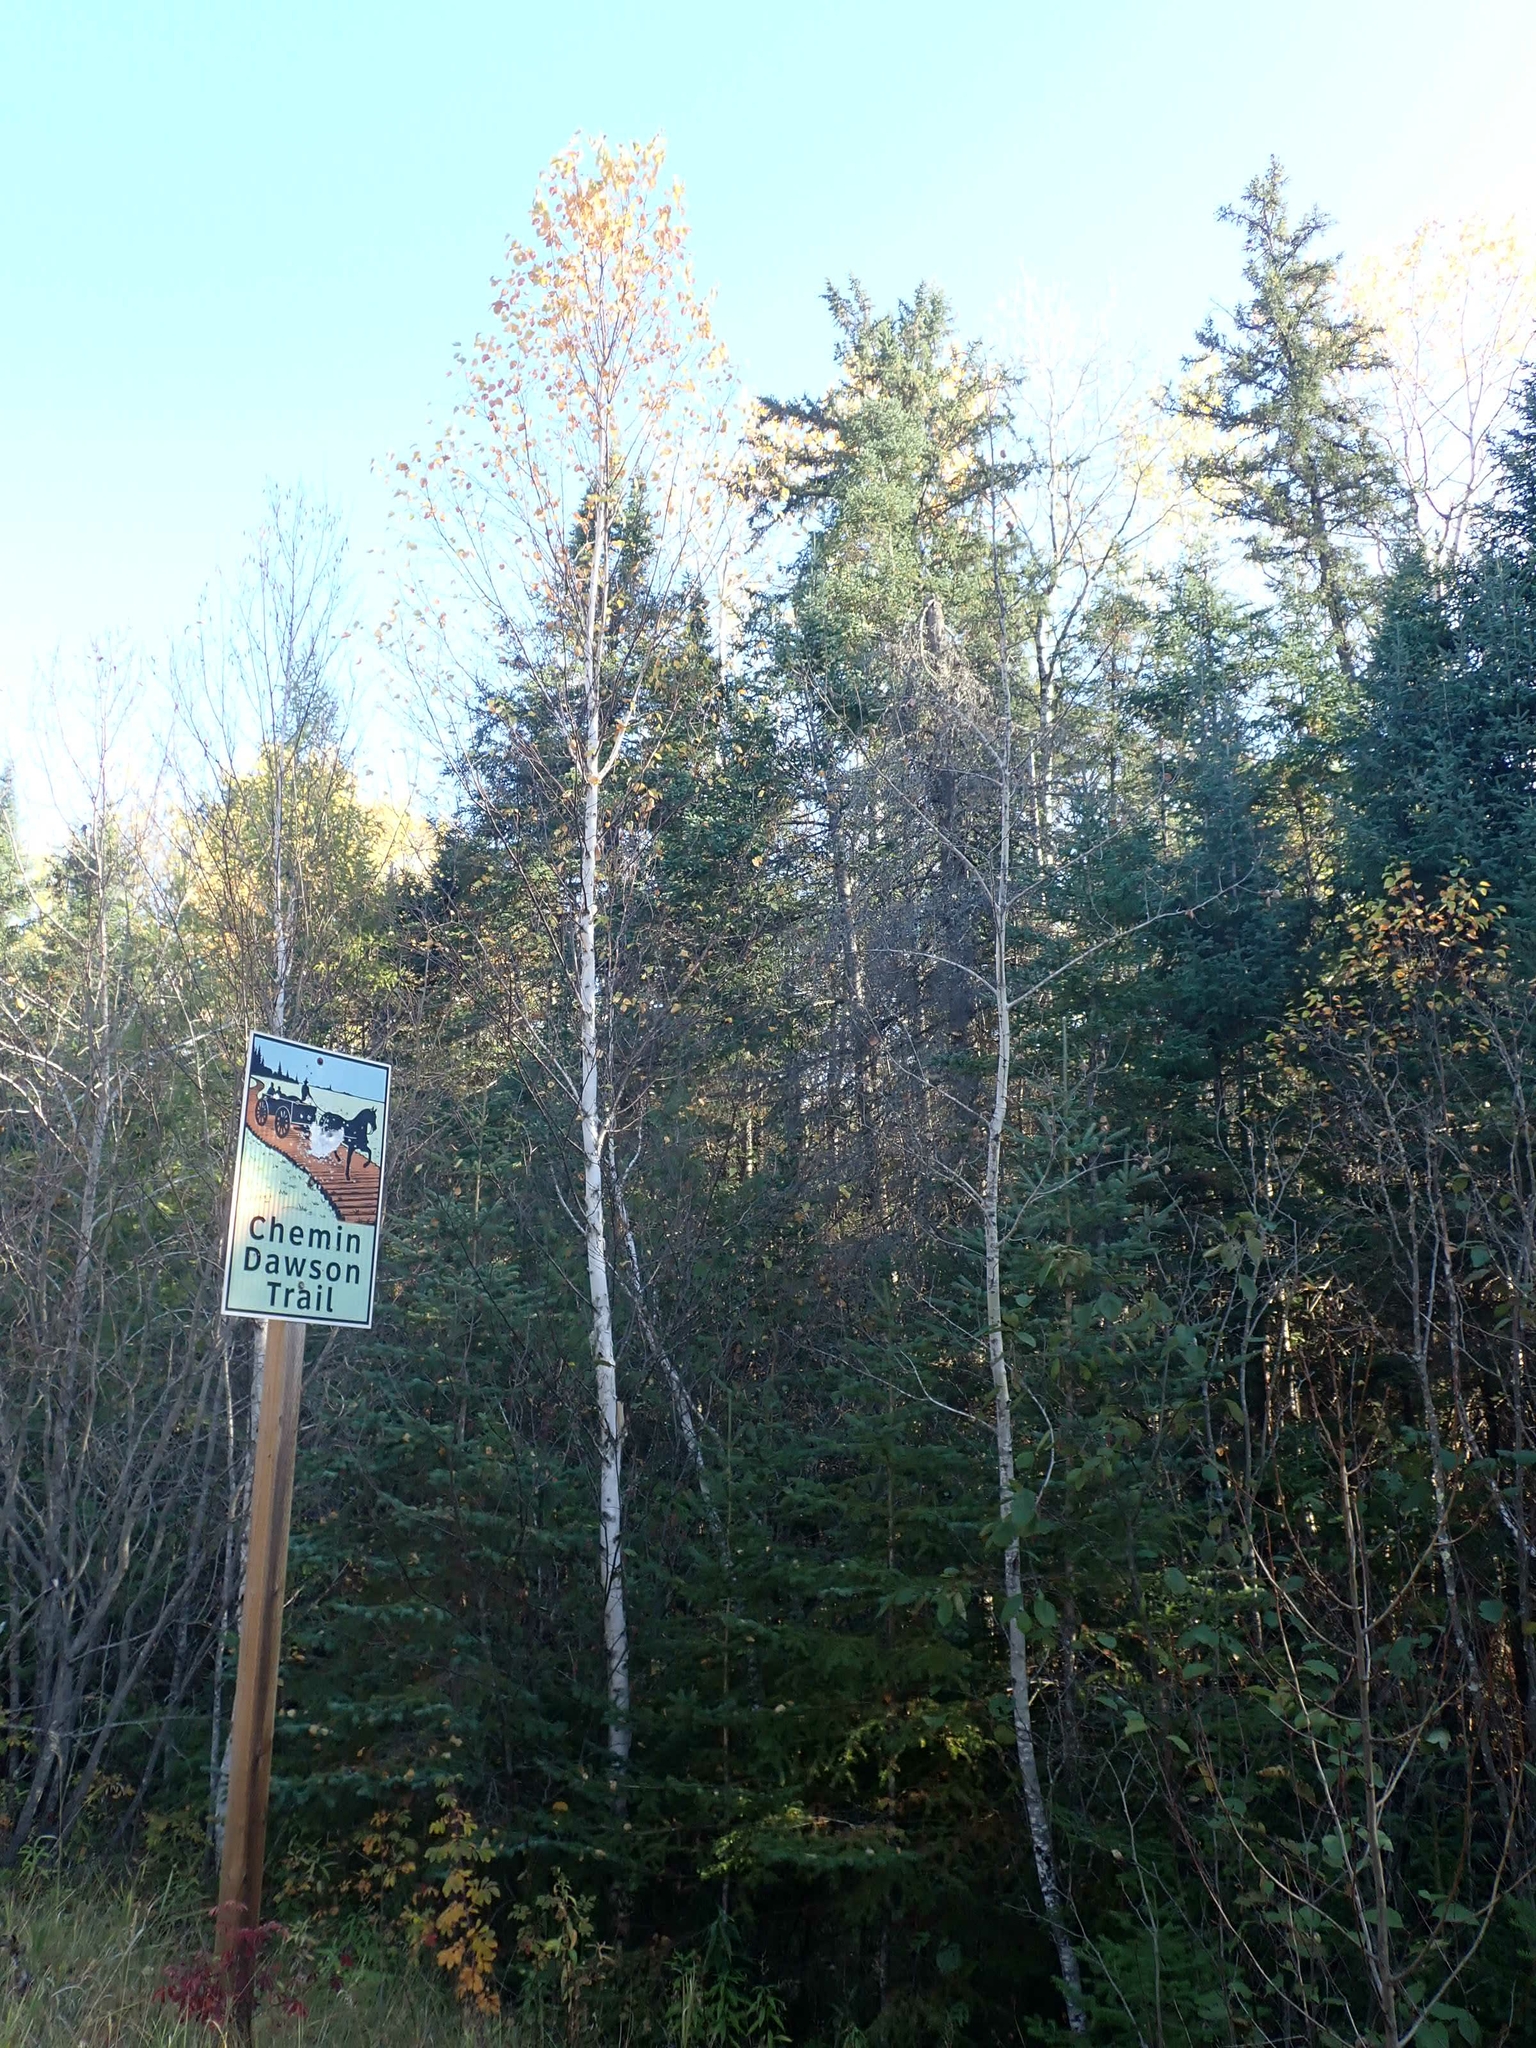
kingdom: Plantae
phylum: Tracheophyta
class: Magnoliopsida
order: Fagales
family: Betulaceae
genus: Betula
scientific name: Betula papyrifera
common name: Paper birch
